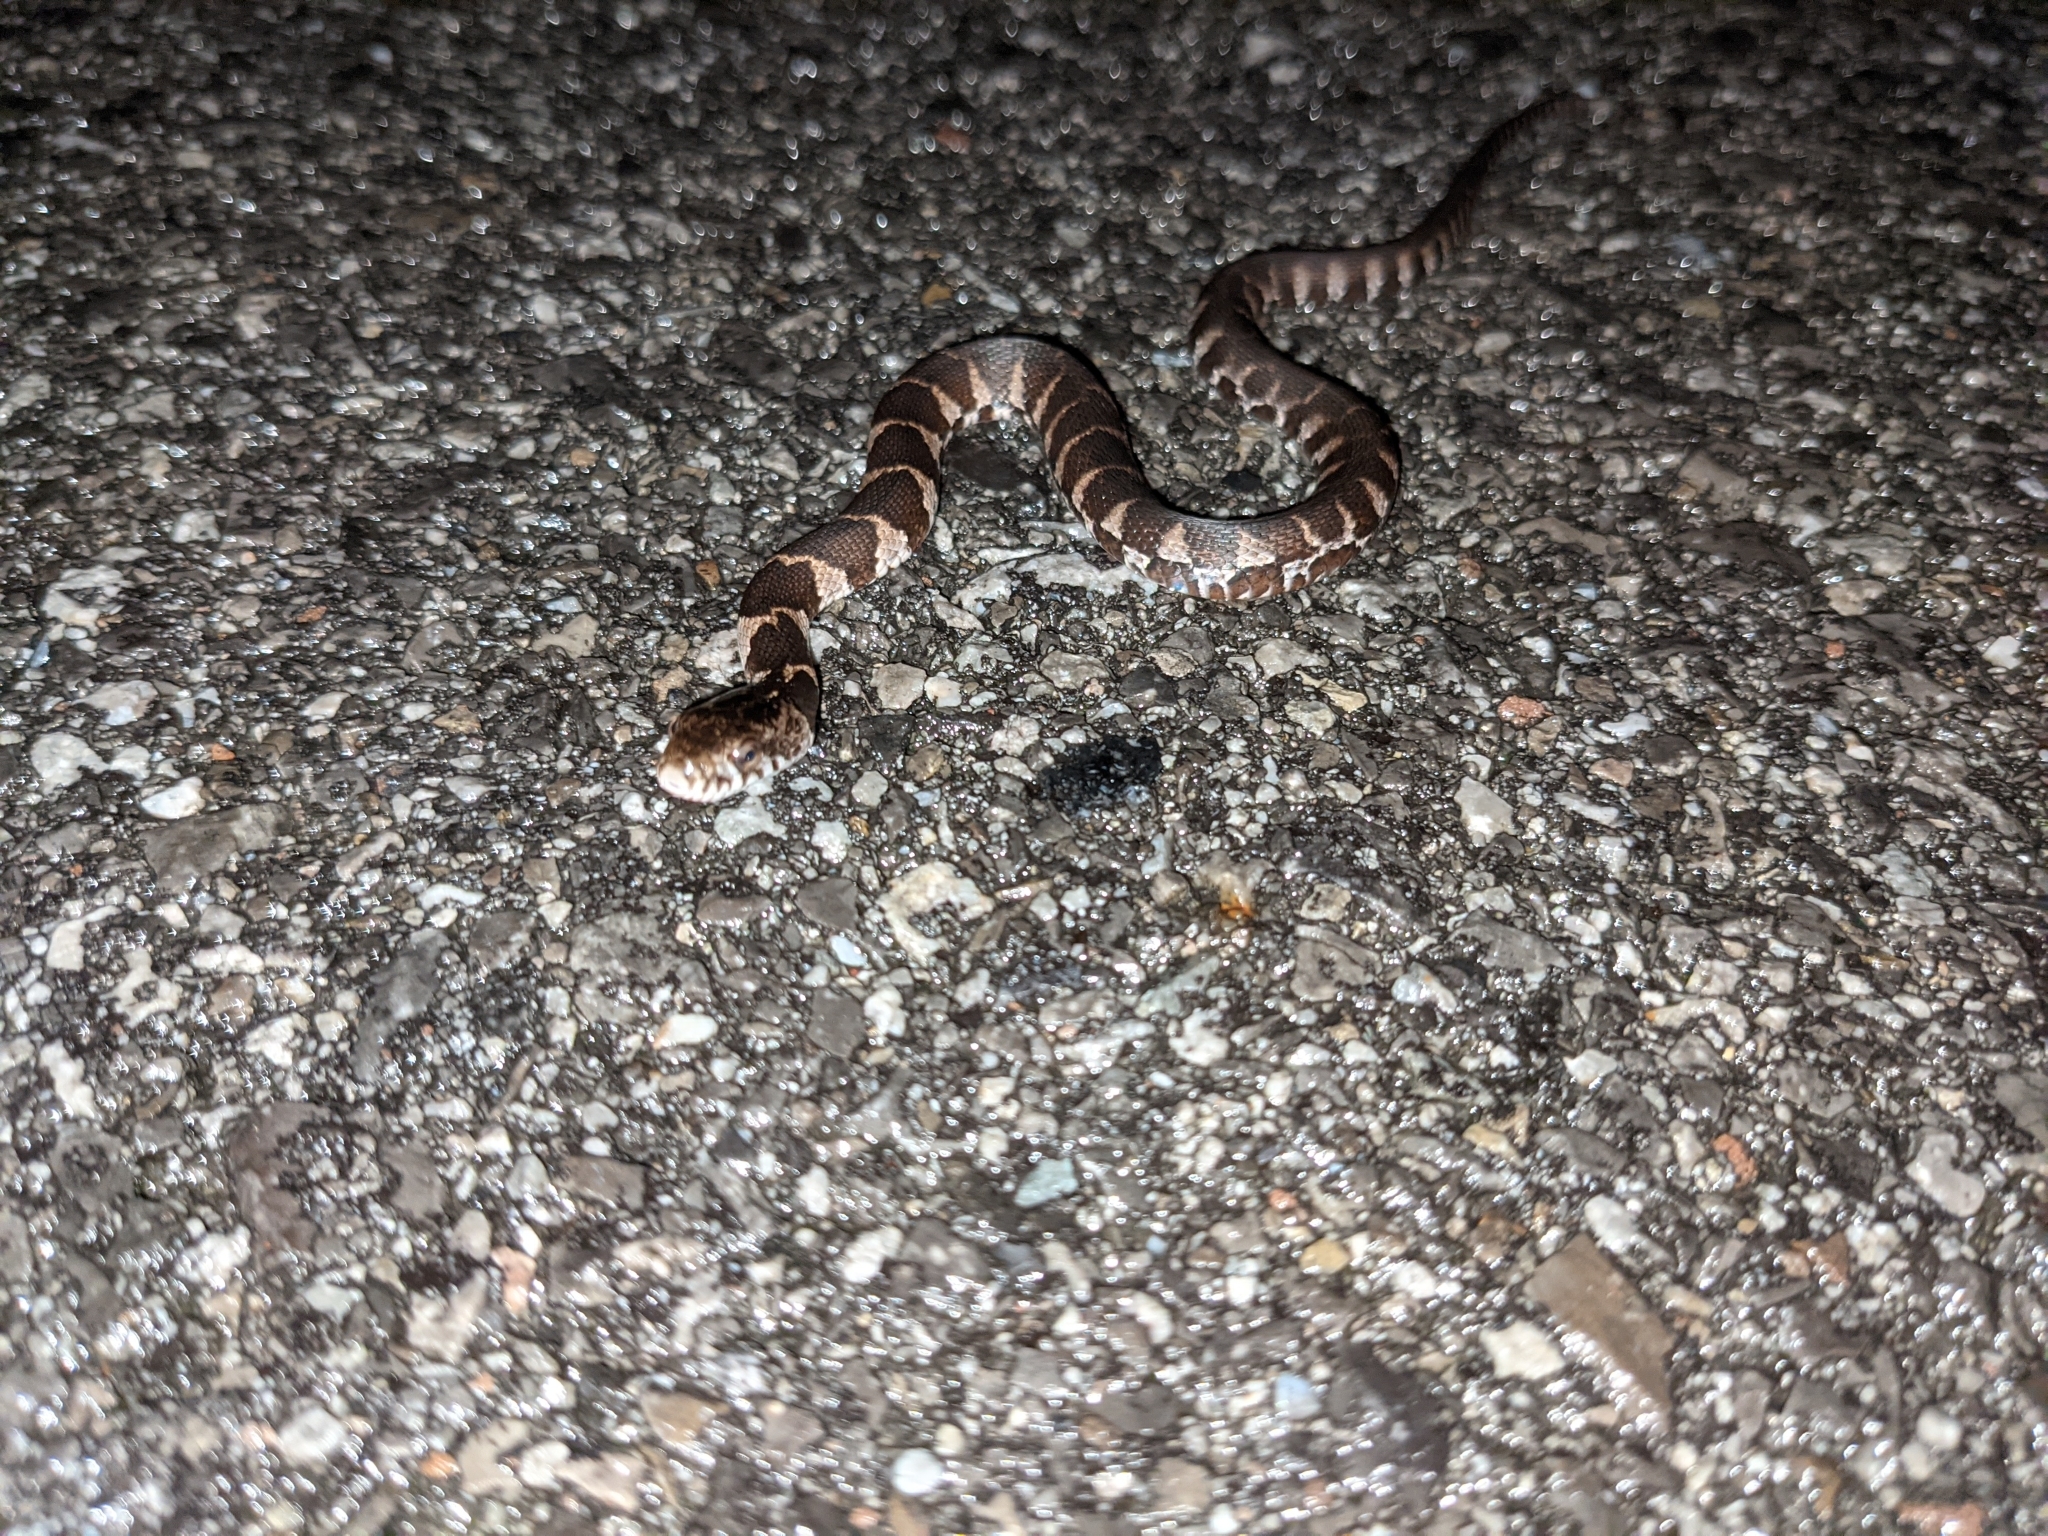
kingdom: Animalia
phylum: Chordata
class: Squamata
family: Colubridae
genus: Nerodia
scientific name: Nerodia sipedon
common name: Northern water snake
